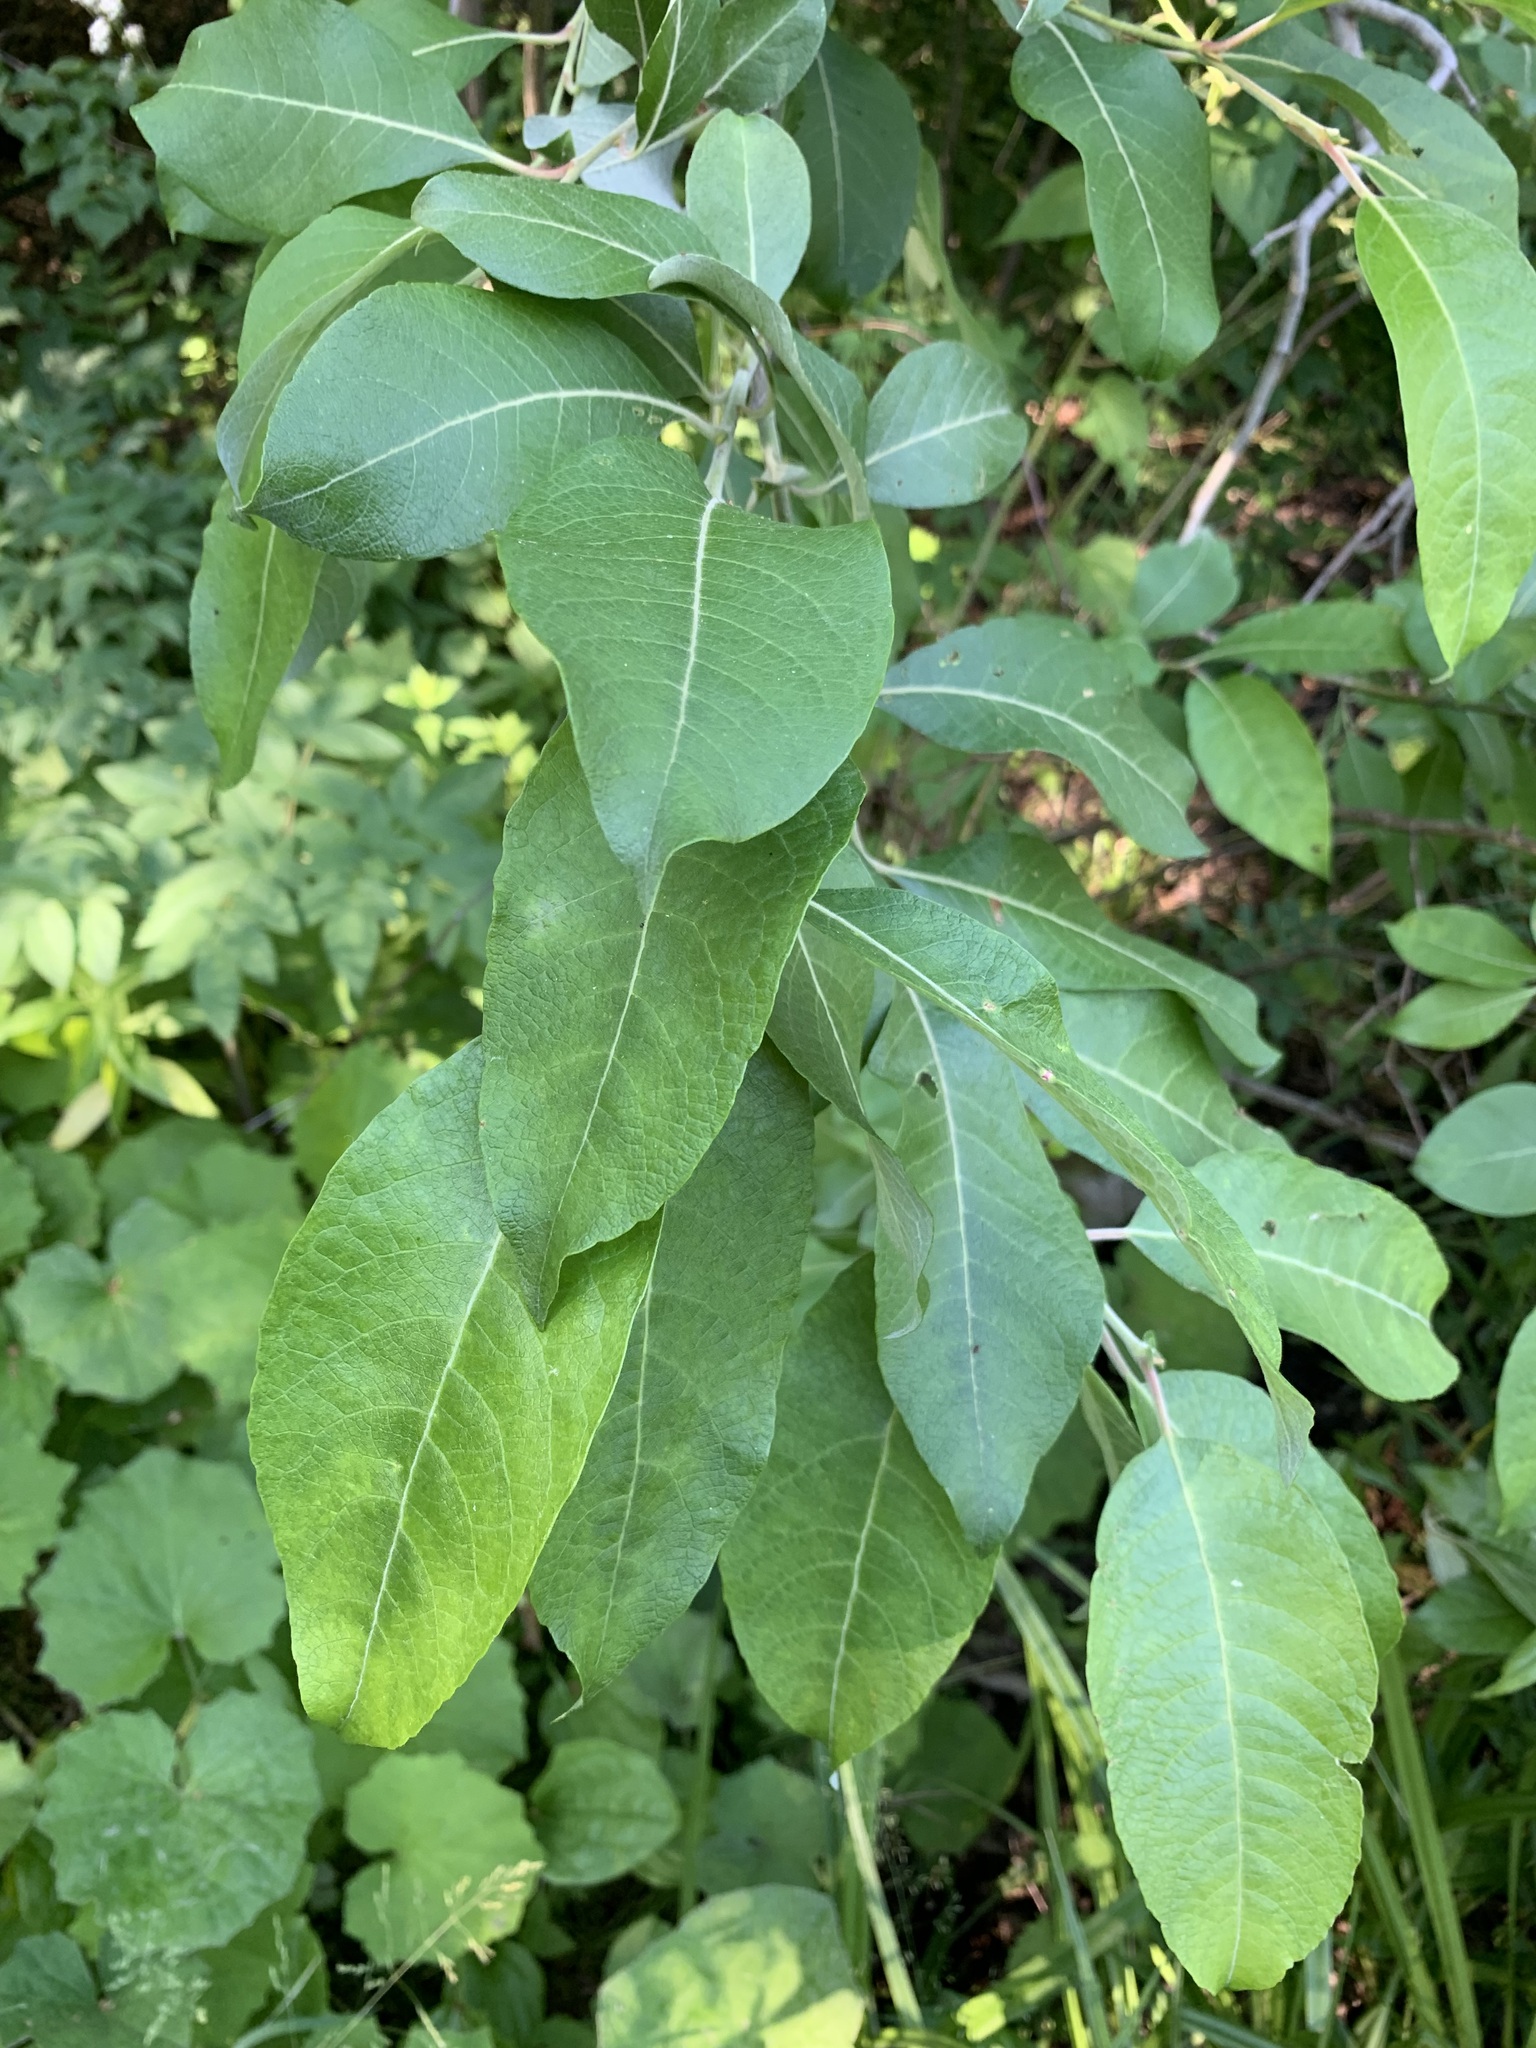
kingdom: Plantae
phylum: Tracheophyta
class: Magnoliopsida
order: Malpighiales
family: Salicaceae
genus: Salix
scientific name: Salix caprea
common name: Goat willow
